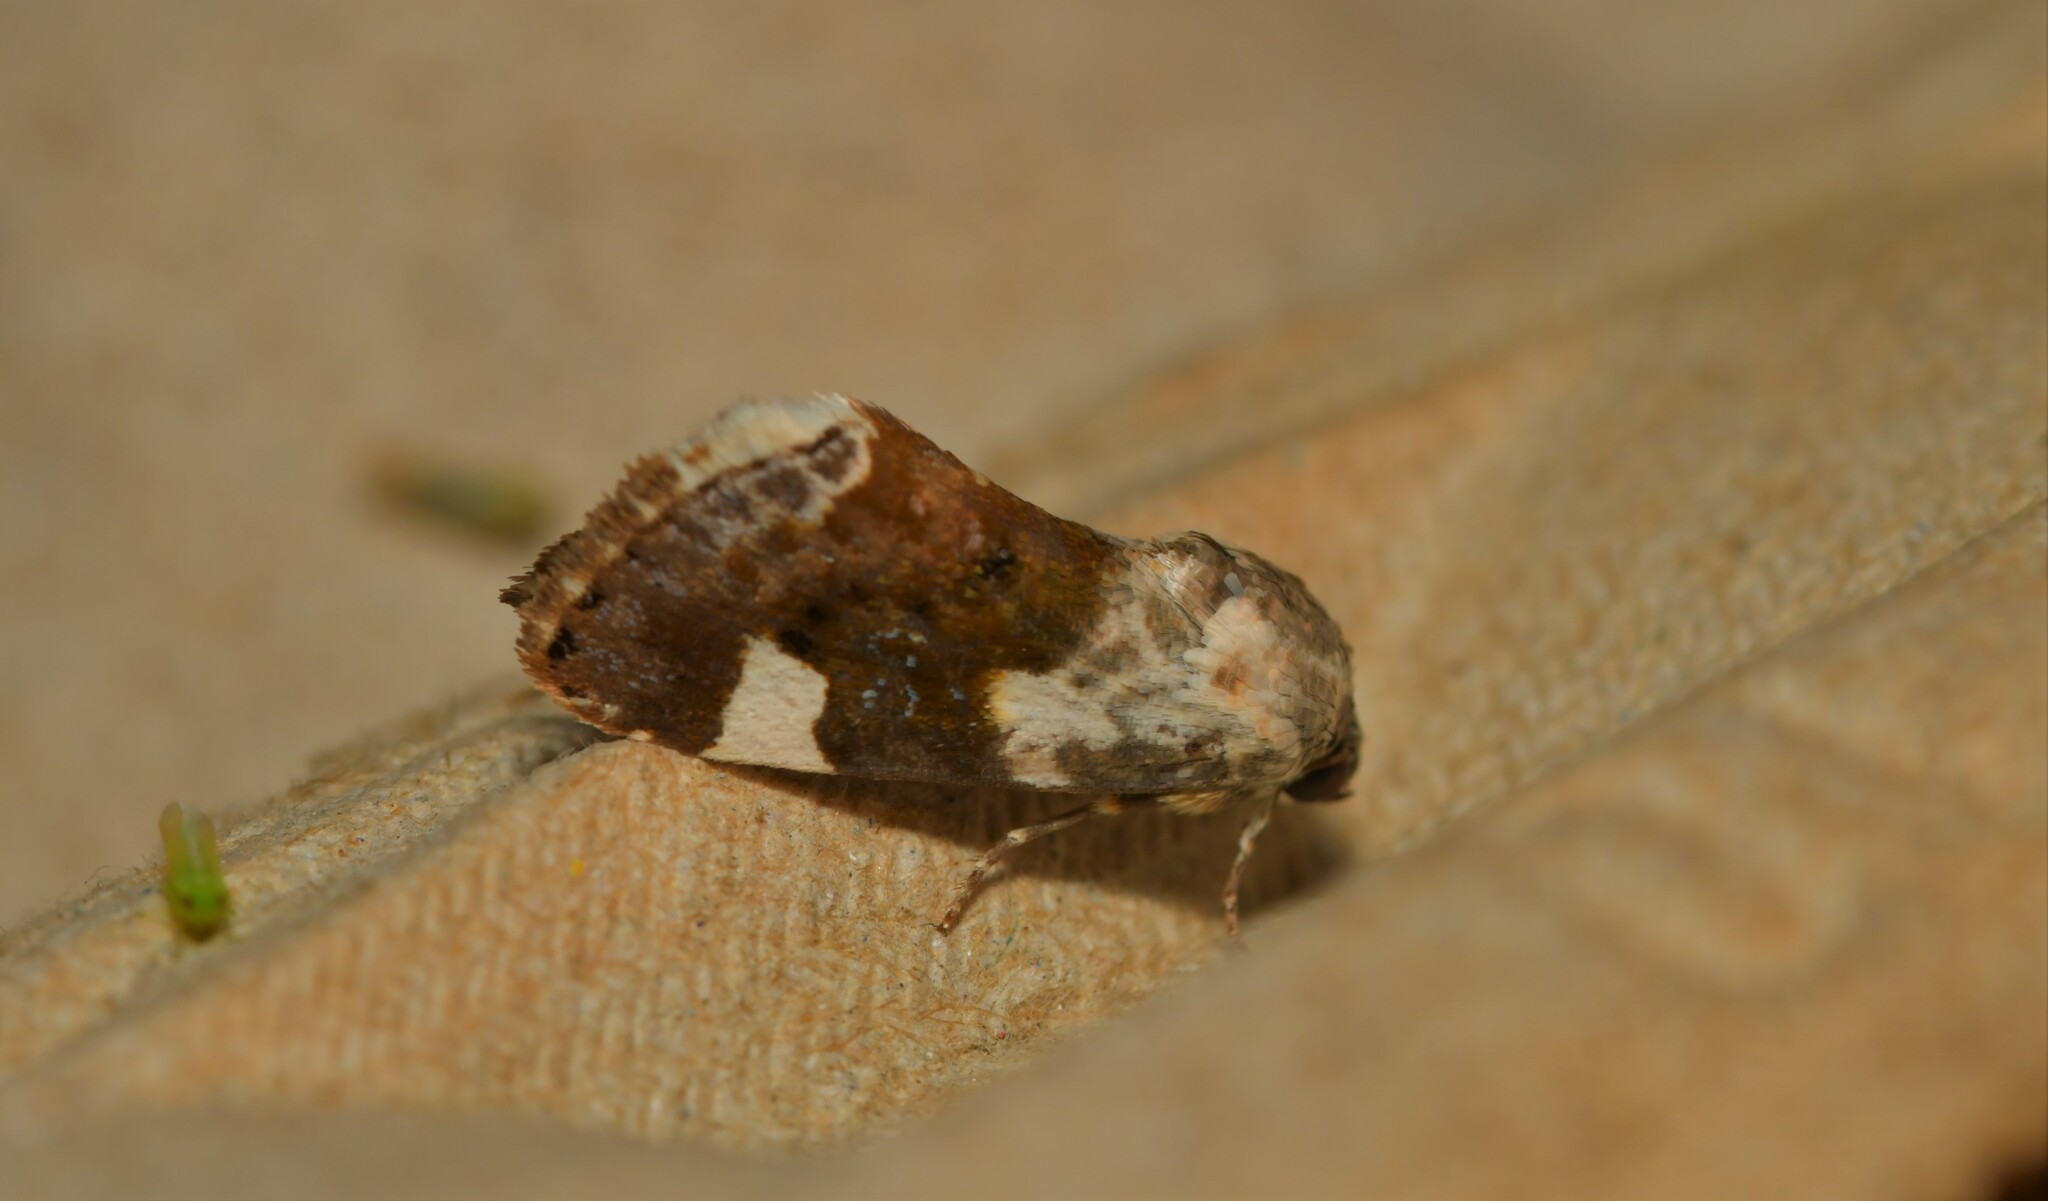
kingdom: Animalia
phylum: Arthropoda
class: Insecta
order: Lepidoptera
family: Noctuidae
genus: Acontia
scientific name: Acontia lucida
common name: Pale shoulder
